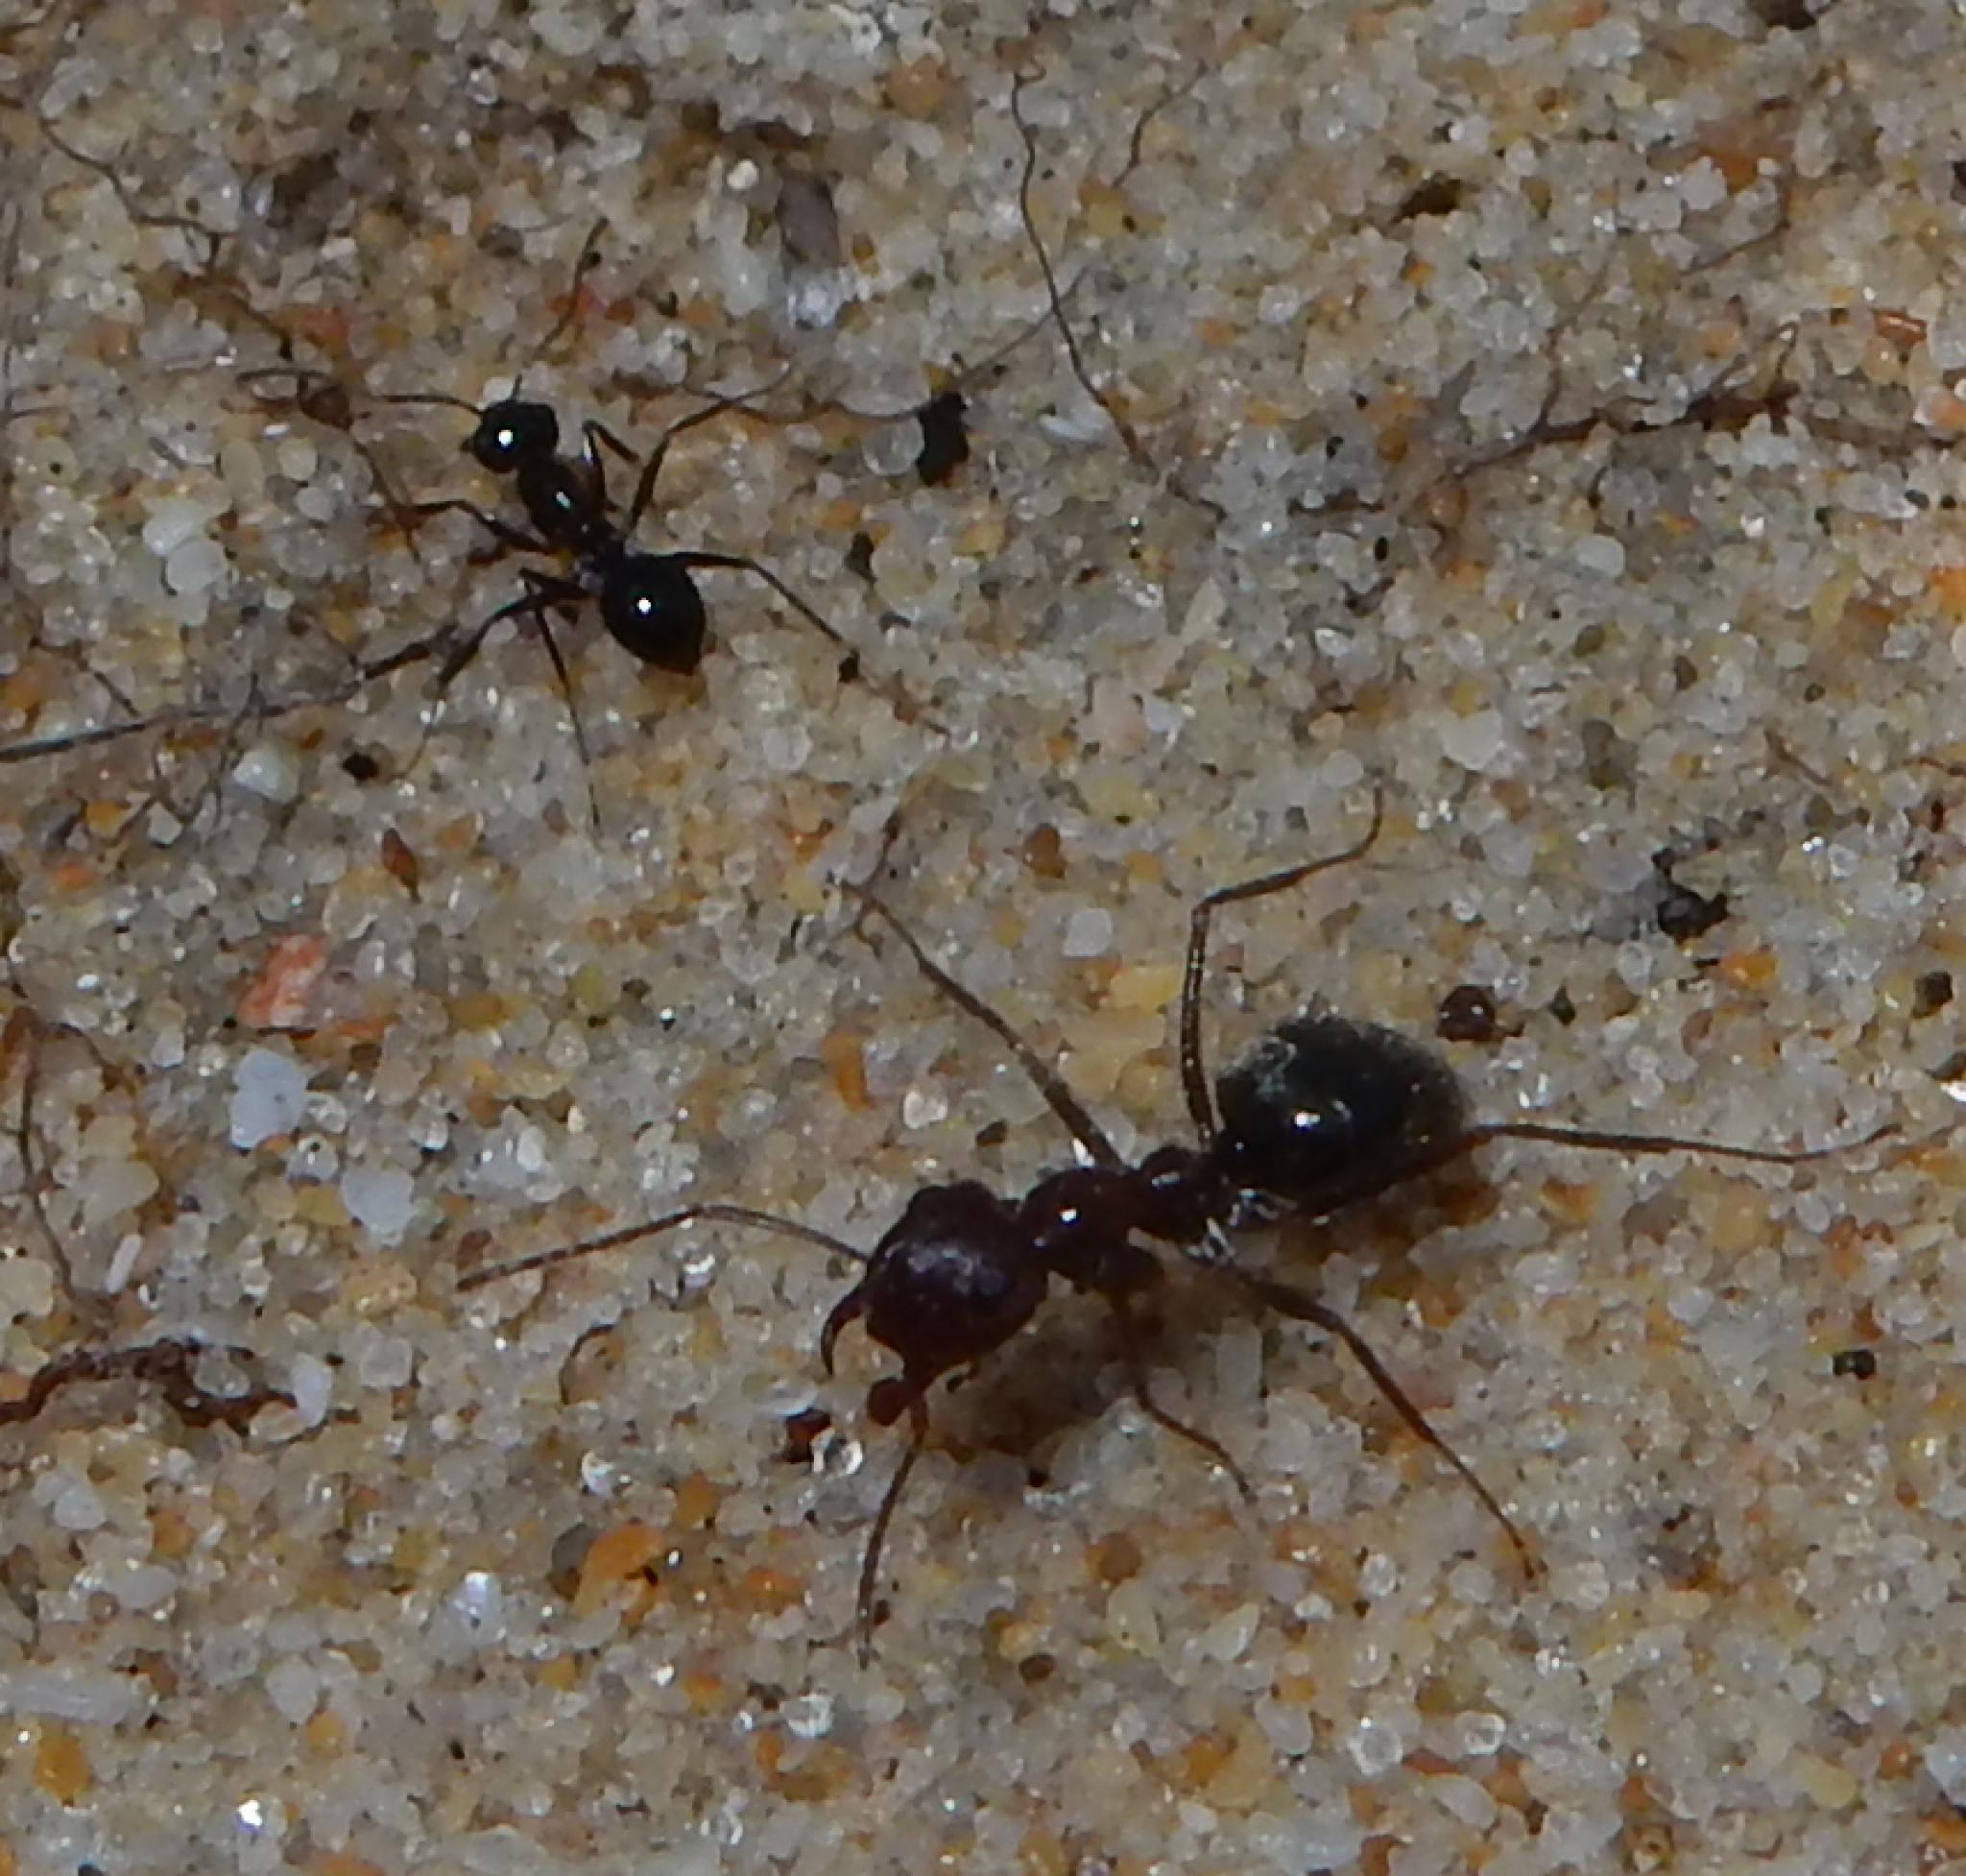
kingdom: Animalia
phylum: Arthropoda
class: Insecta
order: Hymenoptera
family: Formicidae
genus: Anoplolepis
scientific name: Anoplolepis steingroeveri
